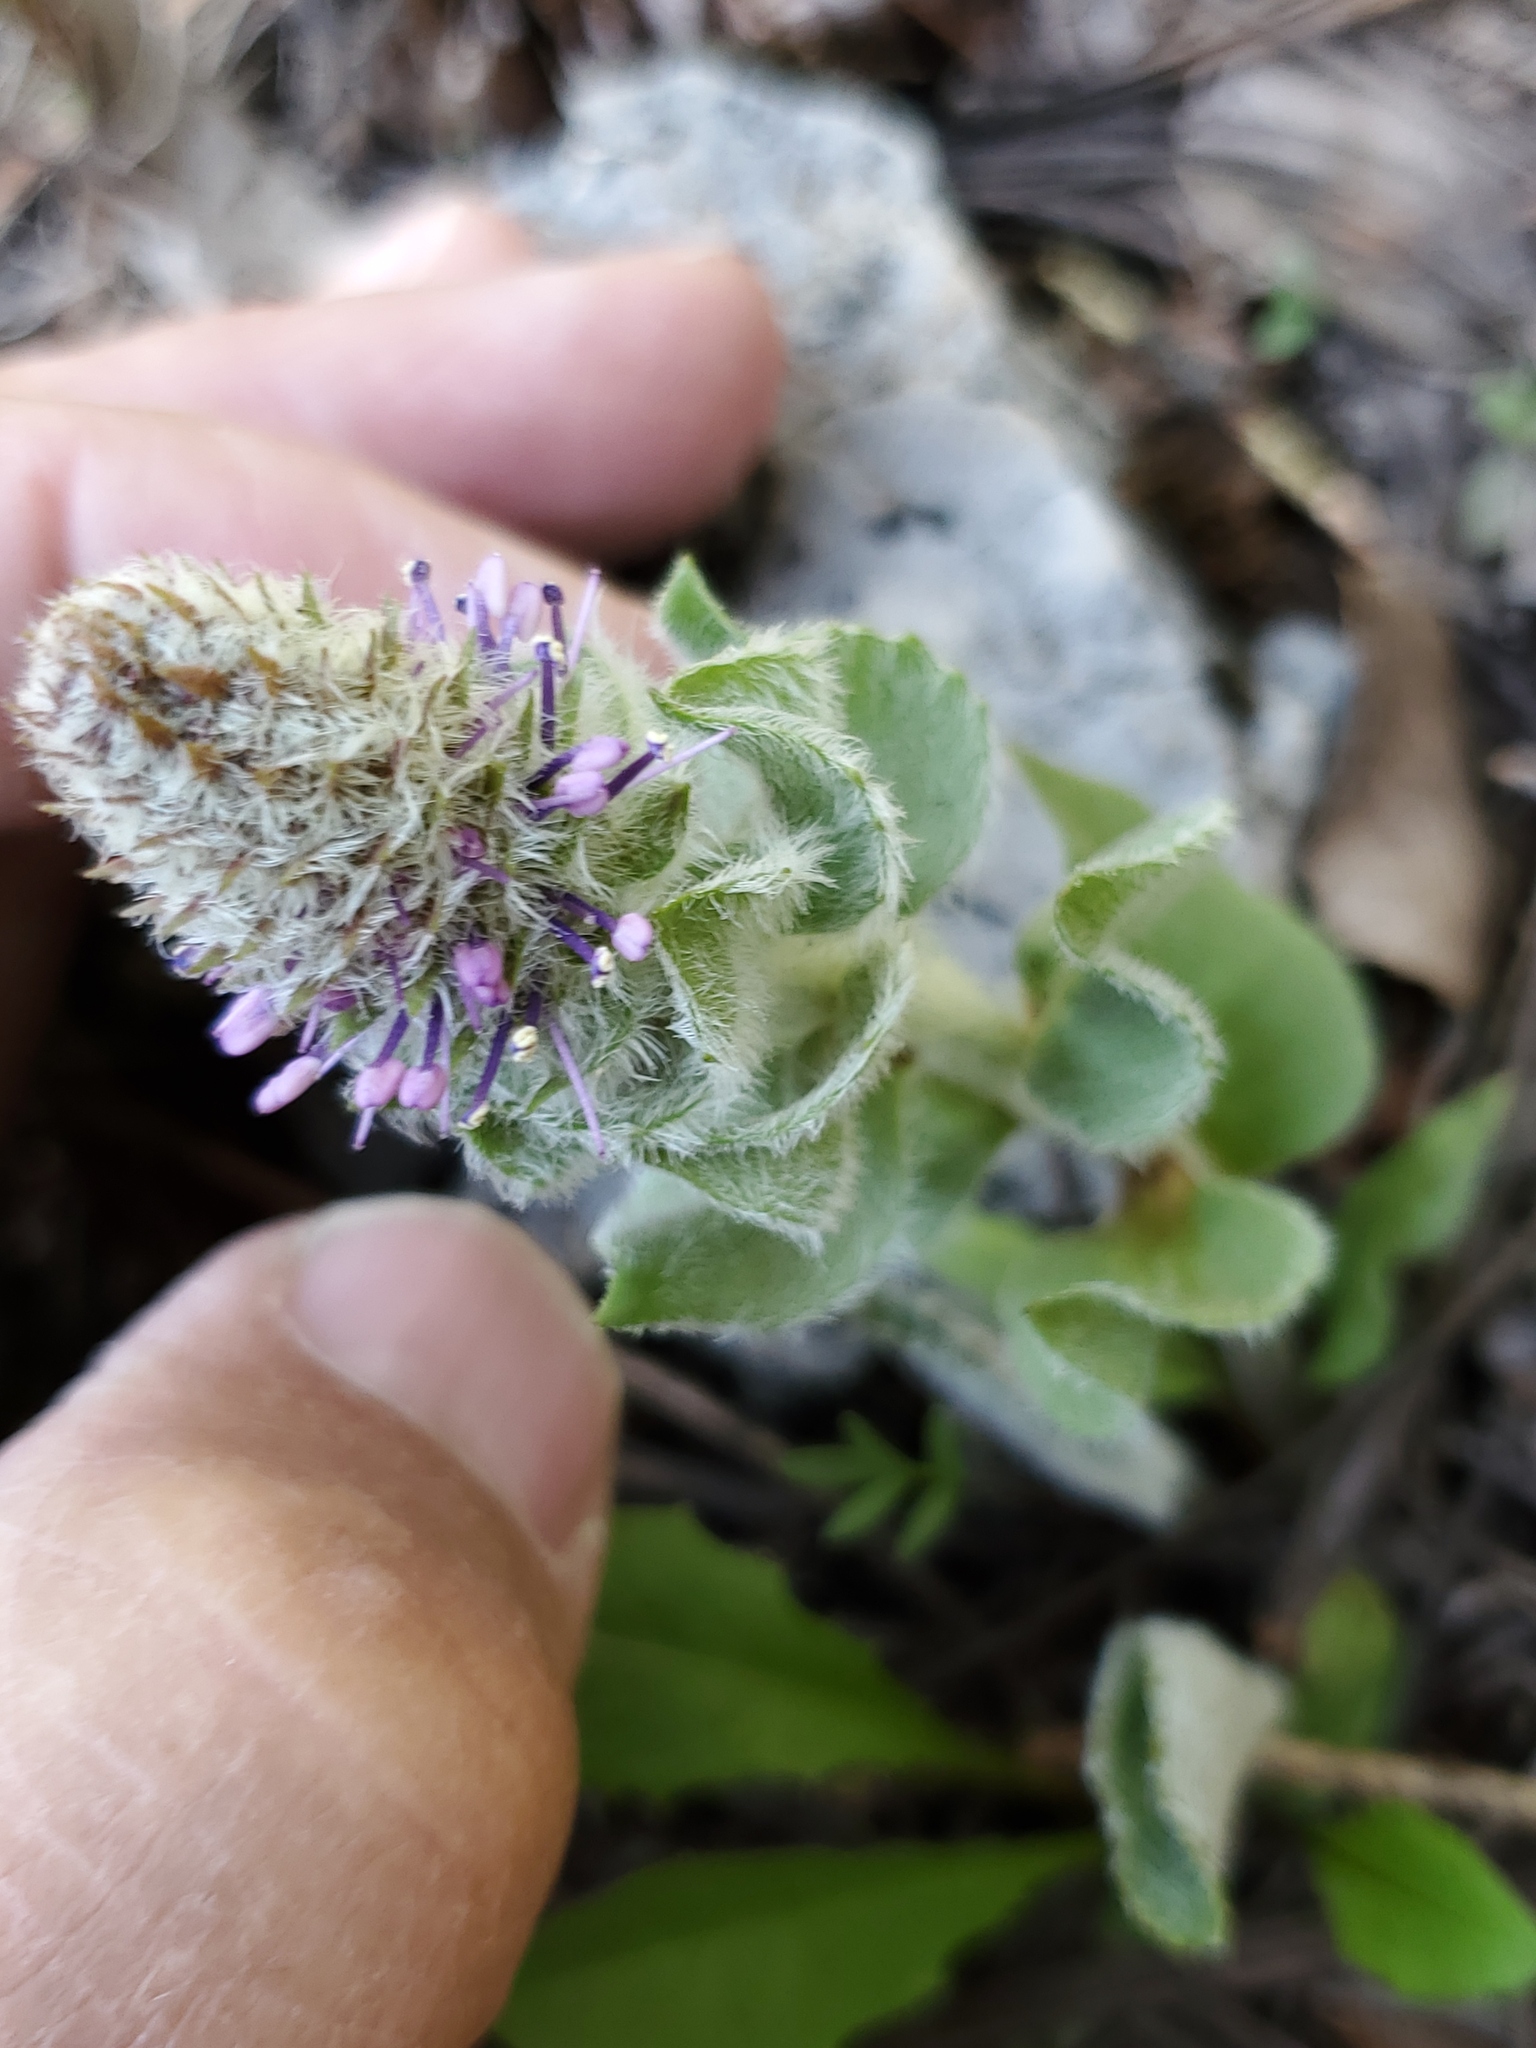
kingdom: Plantae
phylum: Tracheophyta
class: Magnoliopsida
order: Lamiales
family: Plantaginaceae
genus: Synthyris
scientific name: Synthyris wyomingensis
